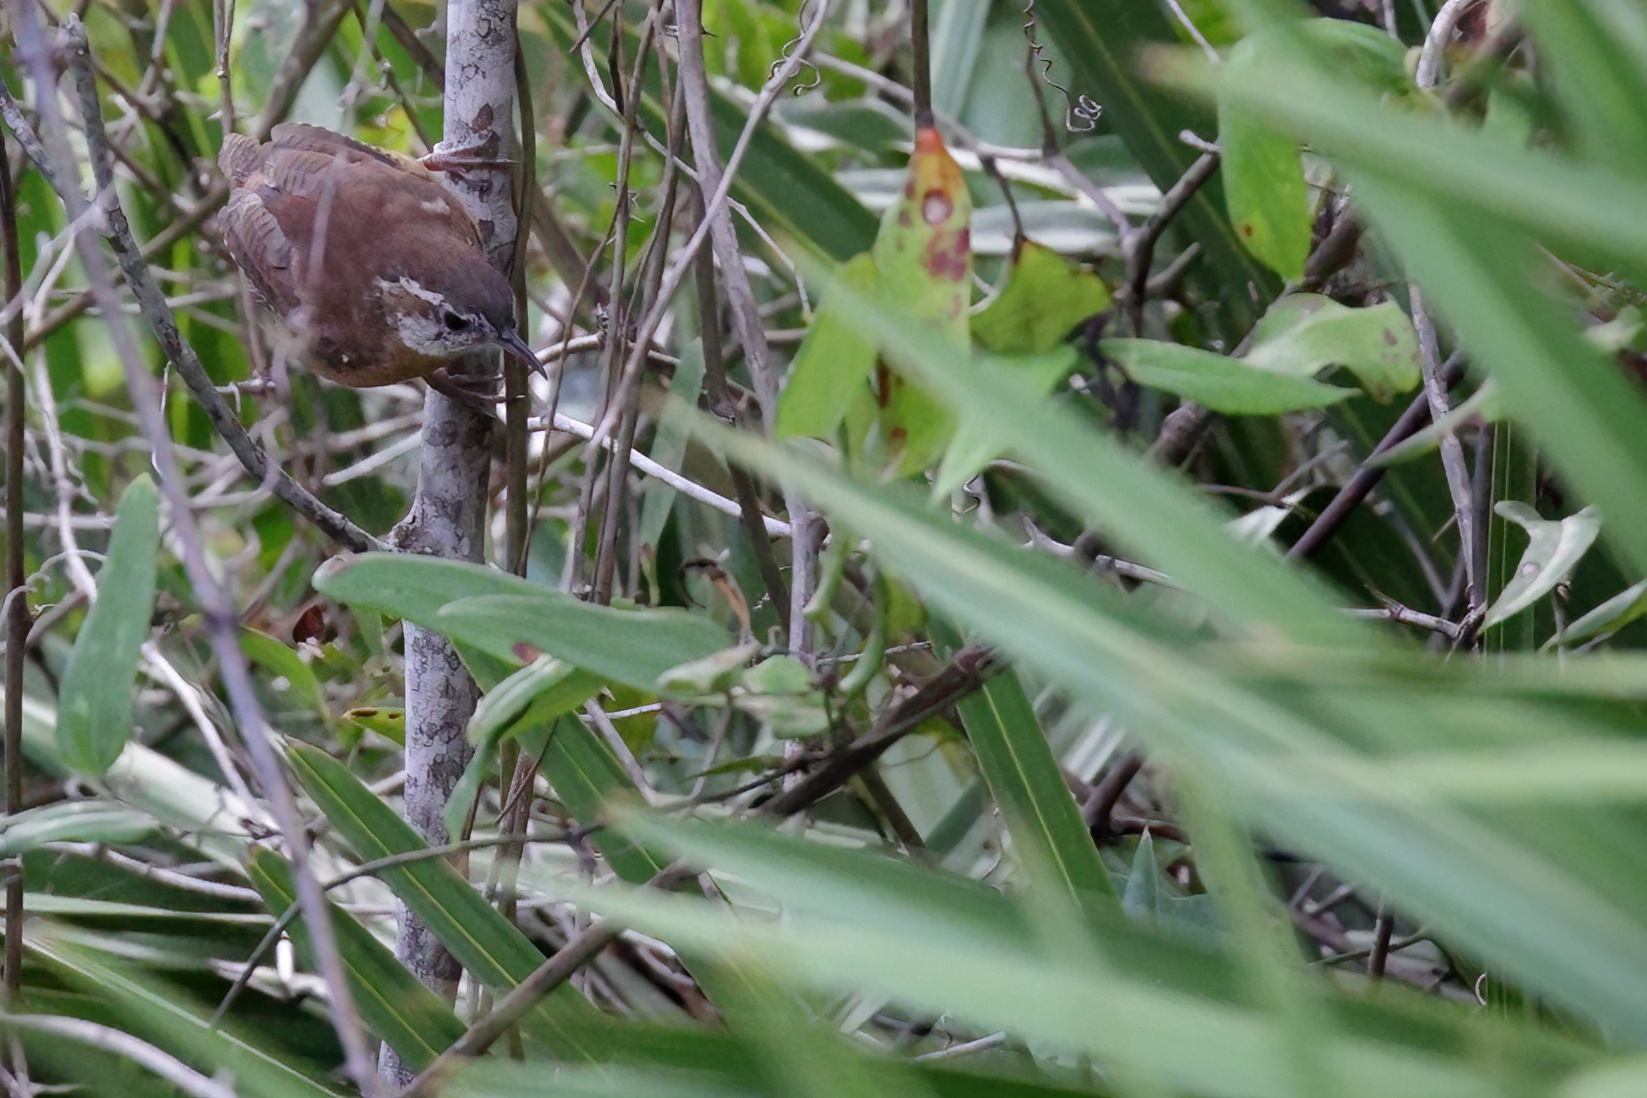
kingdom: Animalia
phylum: Chordata
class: Aves
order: Passeriformes
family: Troglodytidae
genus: Thryothorus
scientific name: Thryothorus ludovicianus
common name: Carolina wren
